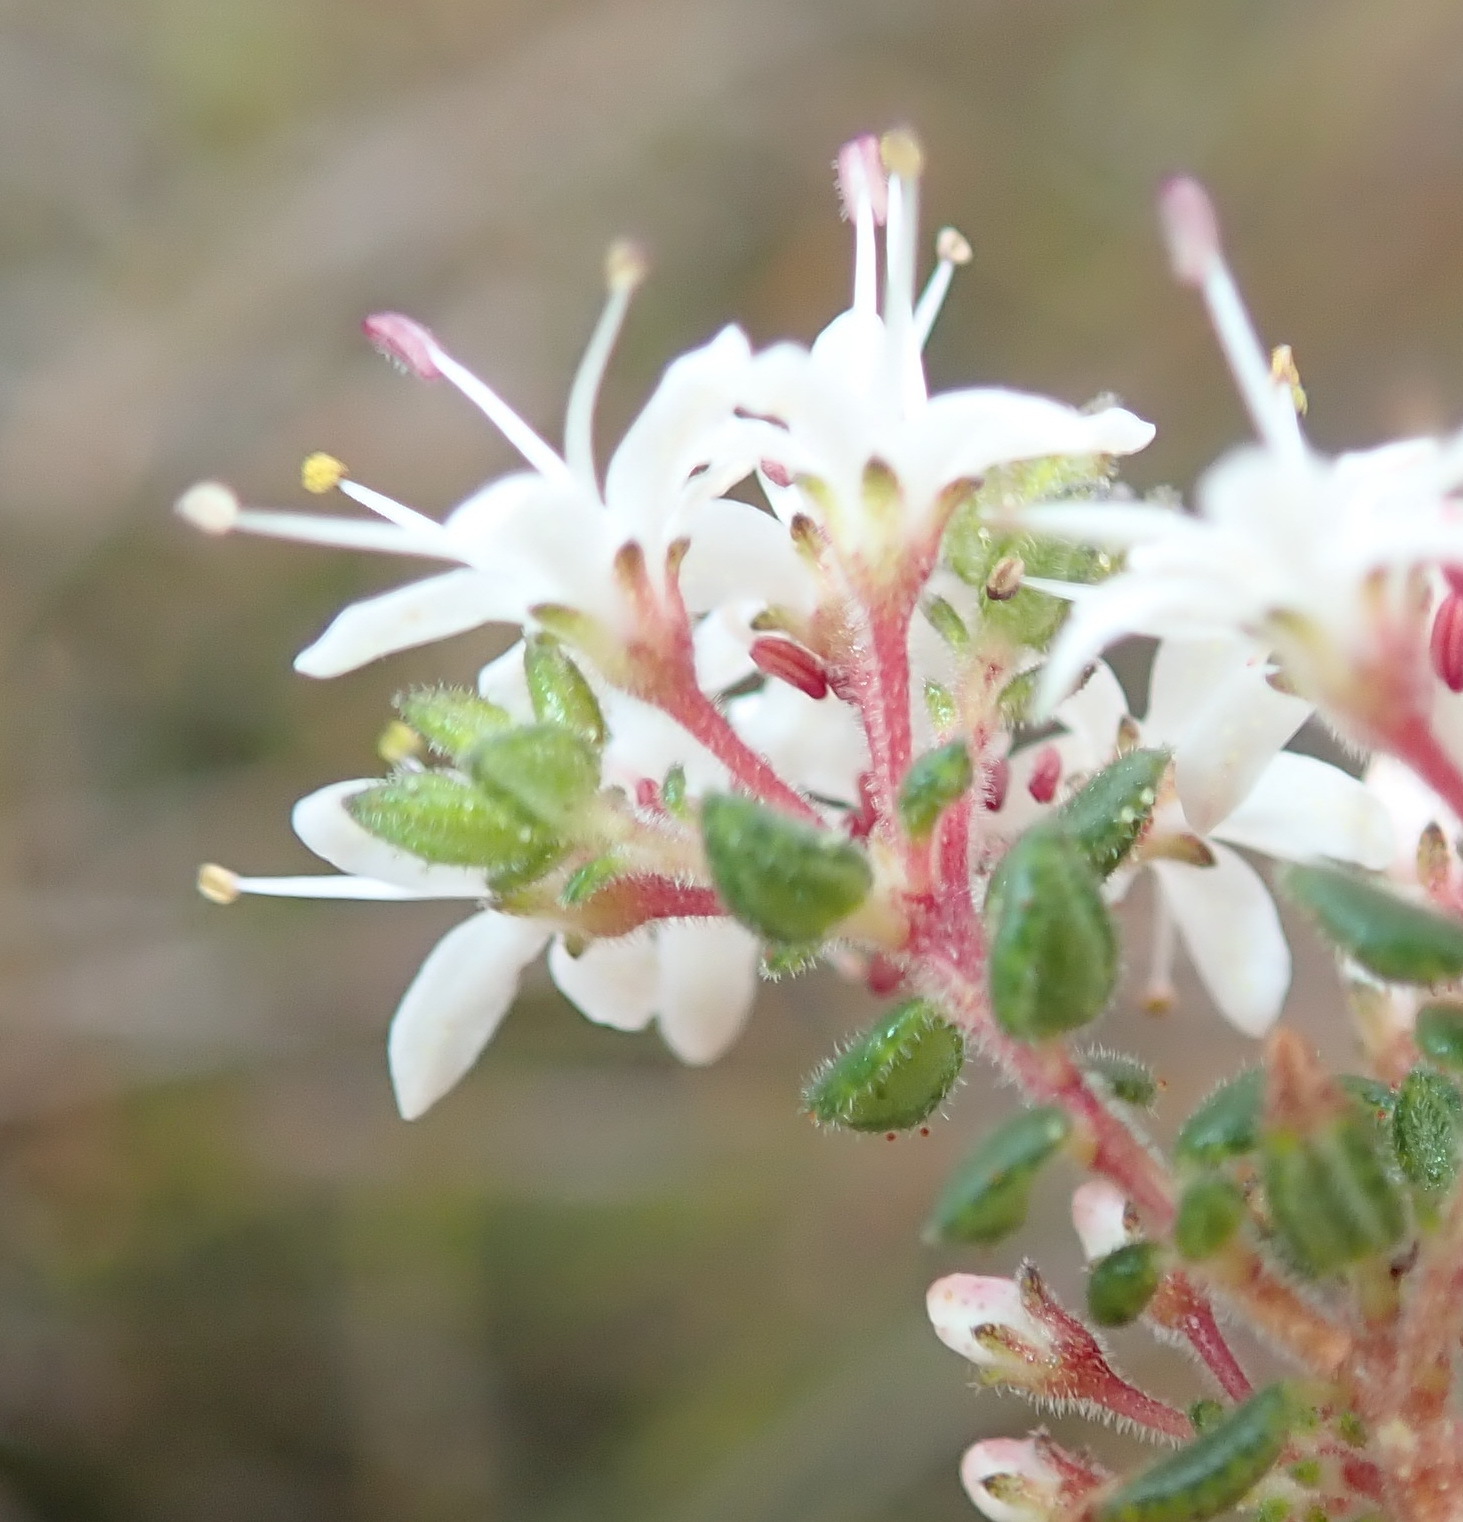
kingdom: Plantae
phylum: Tracheophyta
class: Magnoliopsida
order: Sapindales
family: Rutaceae
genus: Agathosma
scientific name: Agathosma mundtii
